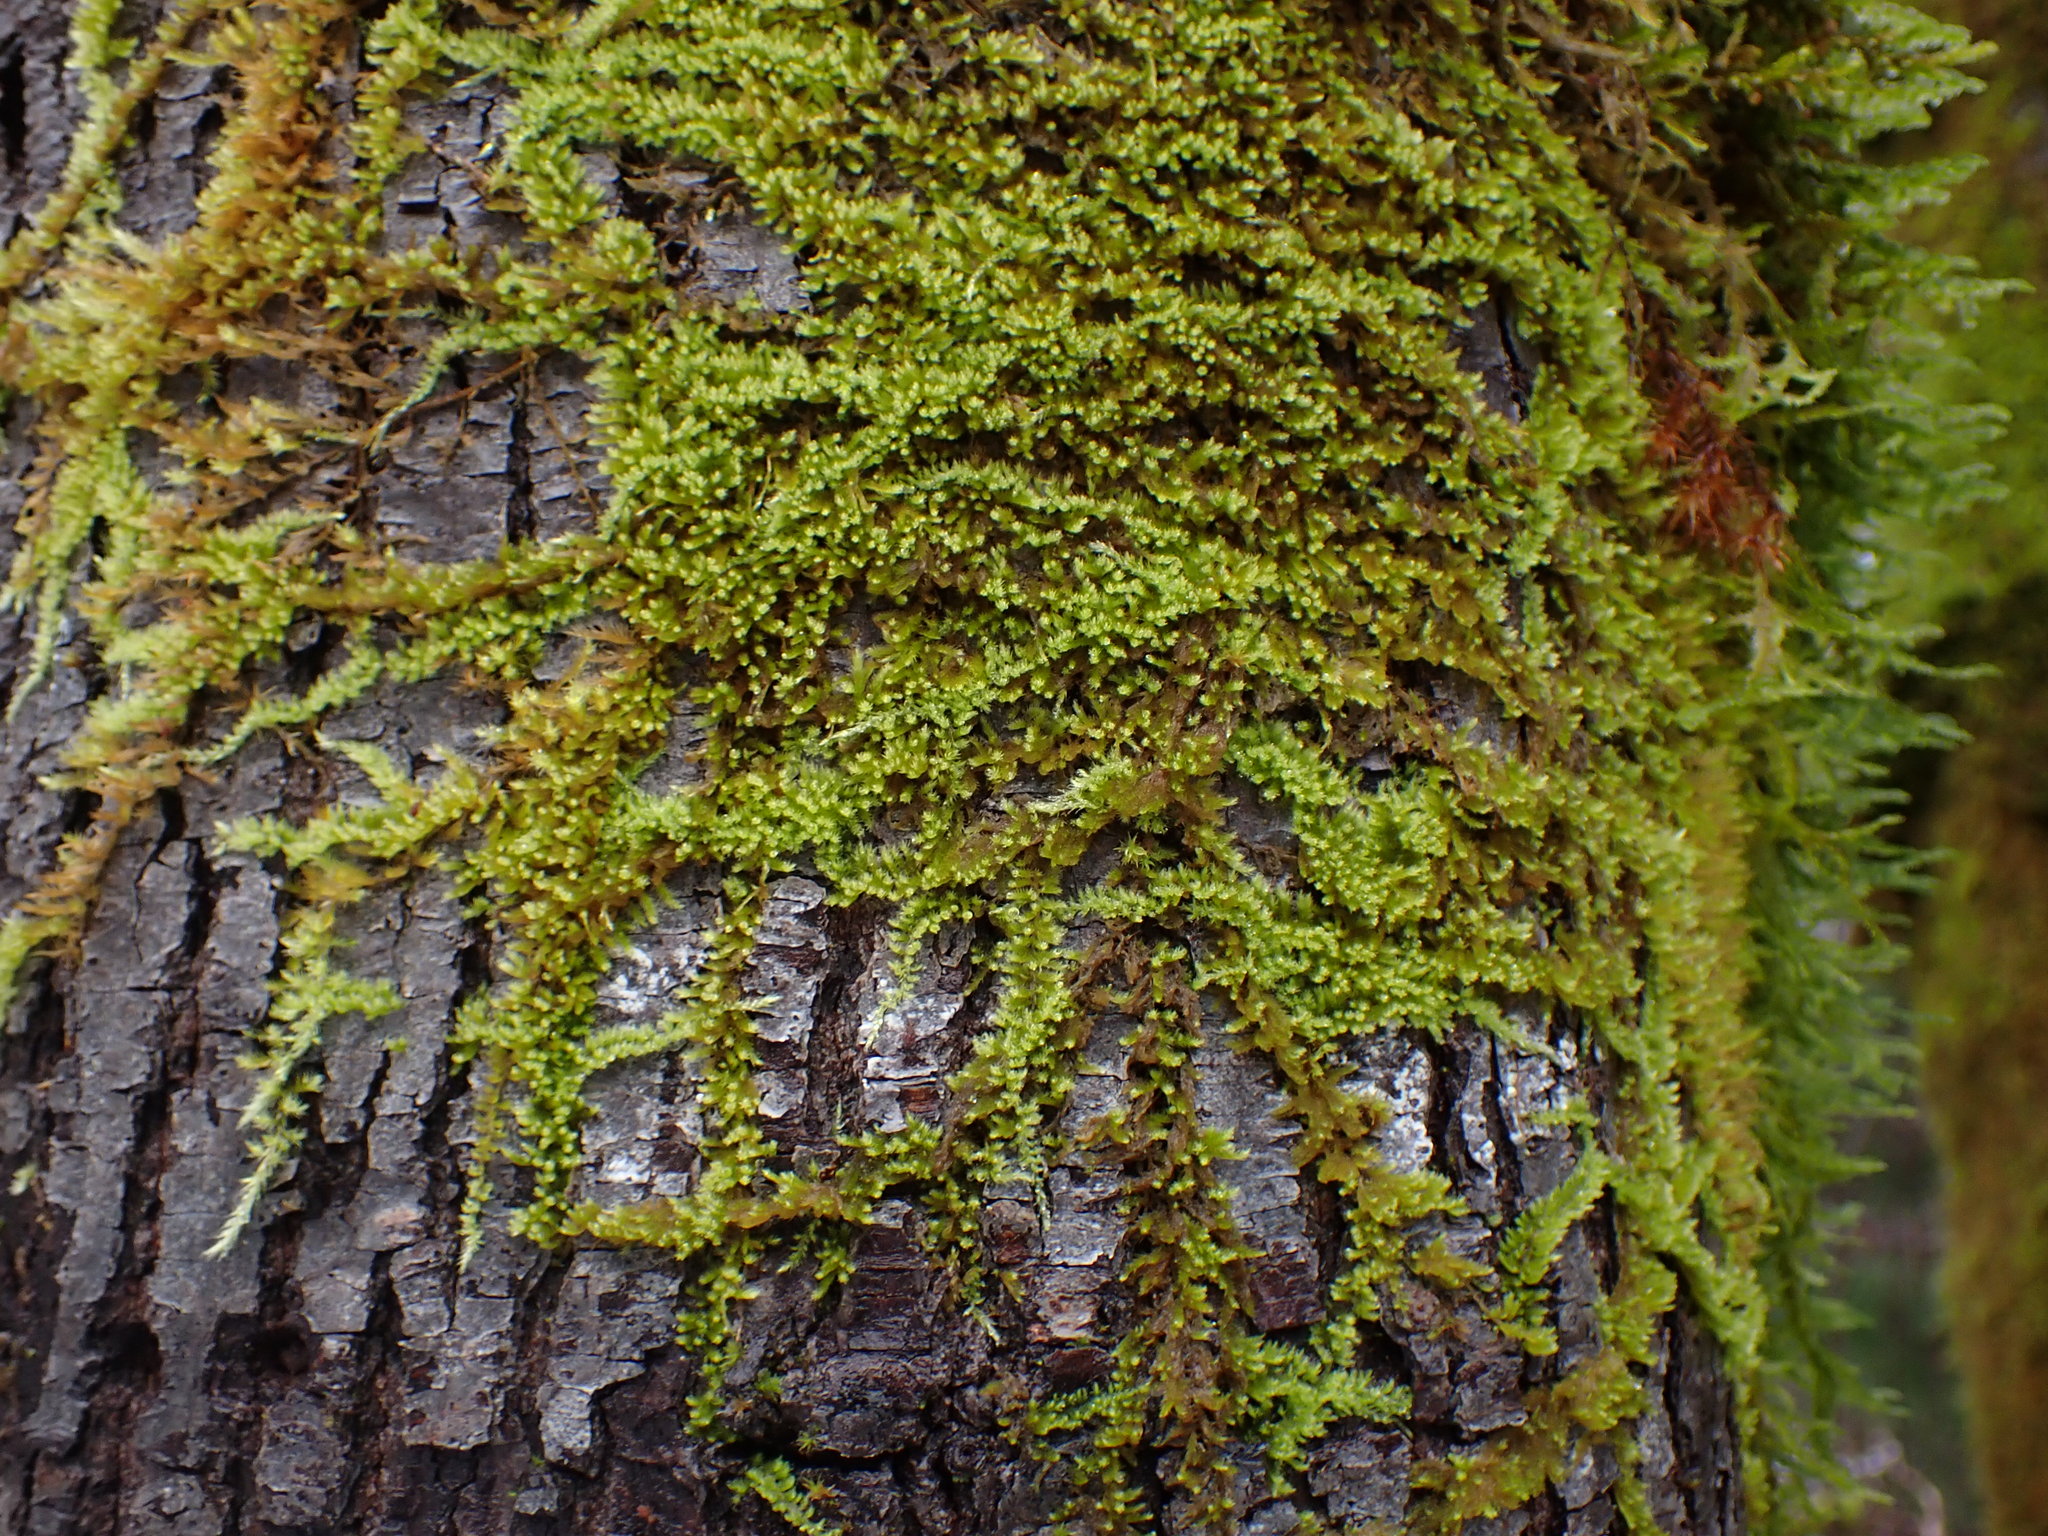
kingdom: Plantae
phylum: Bryophyta
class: Bryopsida
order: Hypnales
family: Brachytheciaceae
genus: Homalothecium
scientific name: Homalothecium nuttallii
